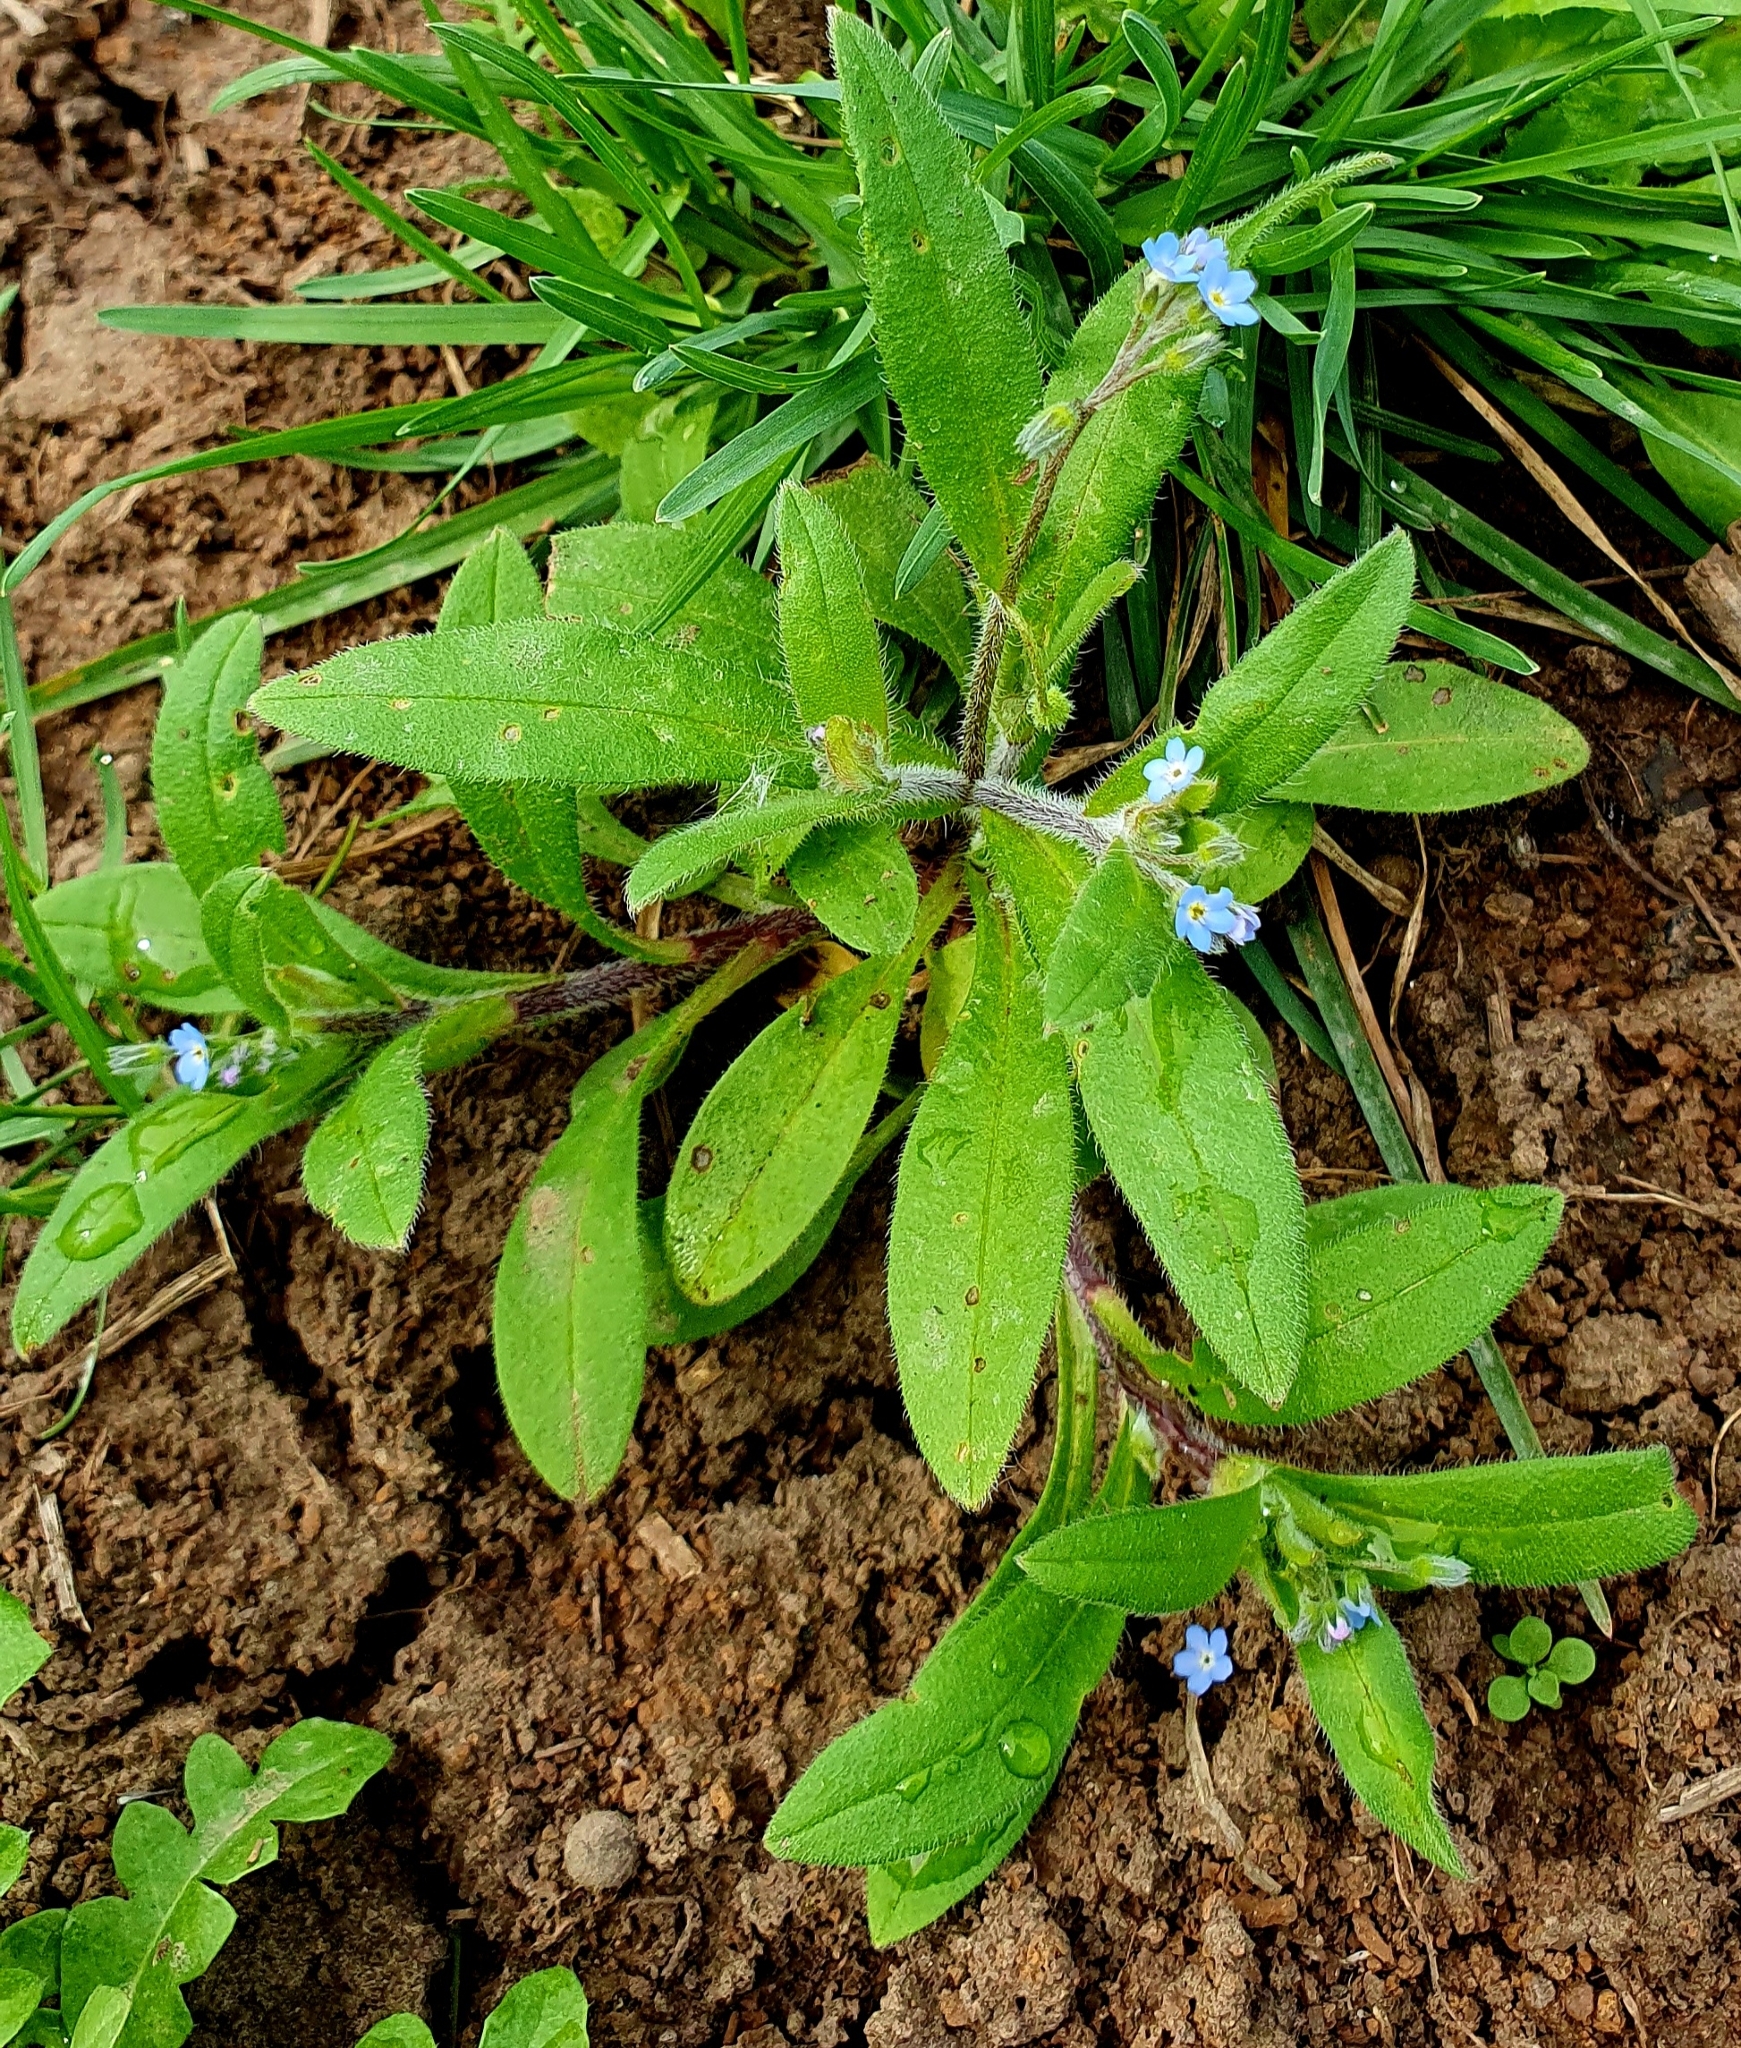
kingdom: Plantae
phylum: Tracheophyta
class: Magnoliopsida
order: Boraginales
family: Boraginaceae
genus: Myosotis
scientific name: Myosotis sparsiflora
